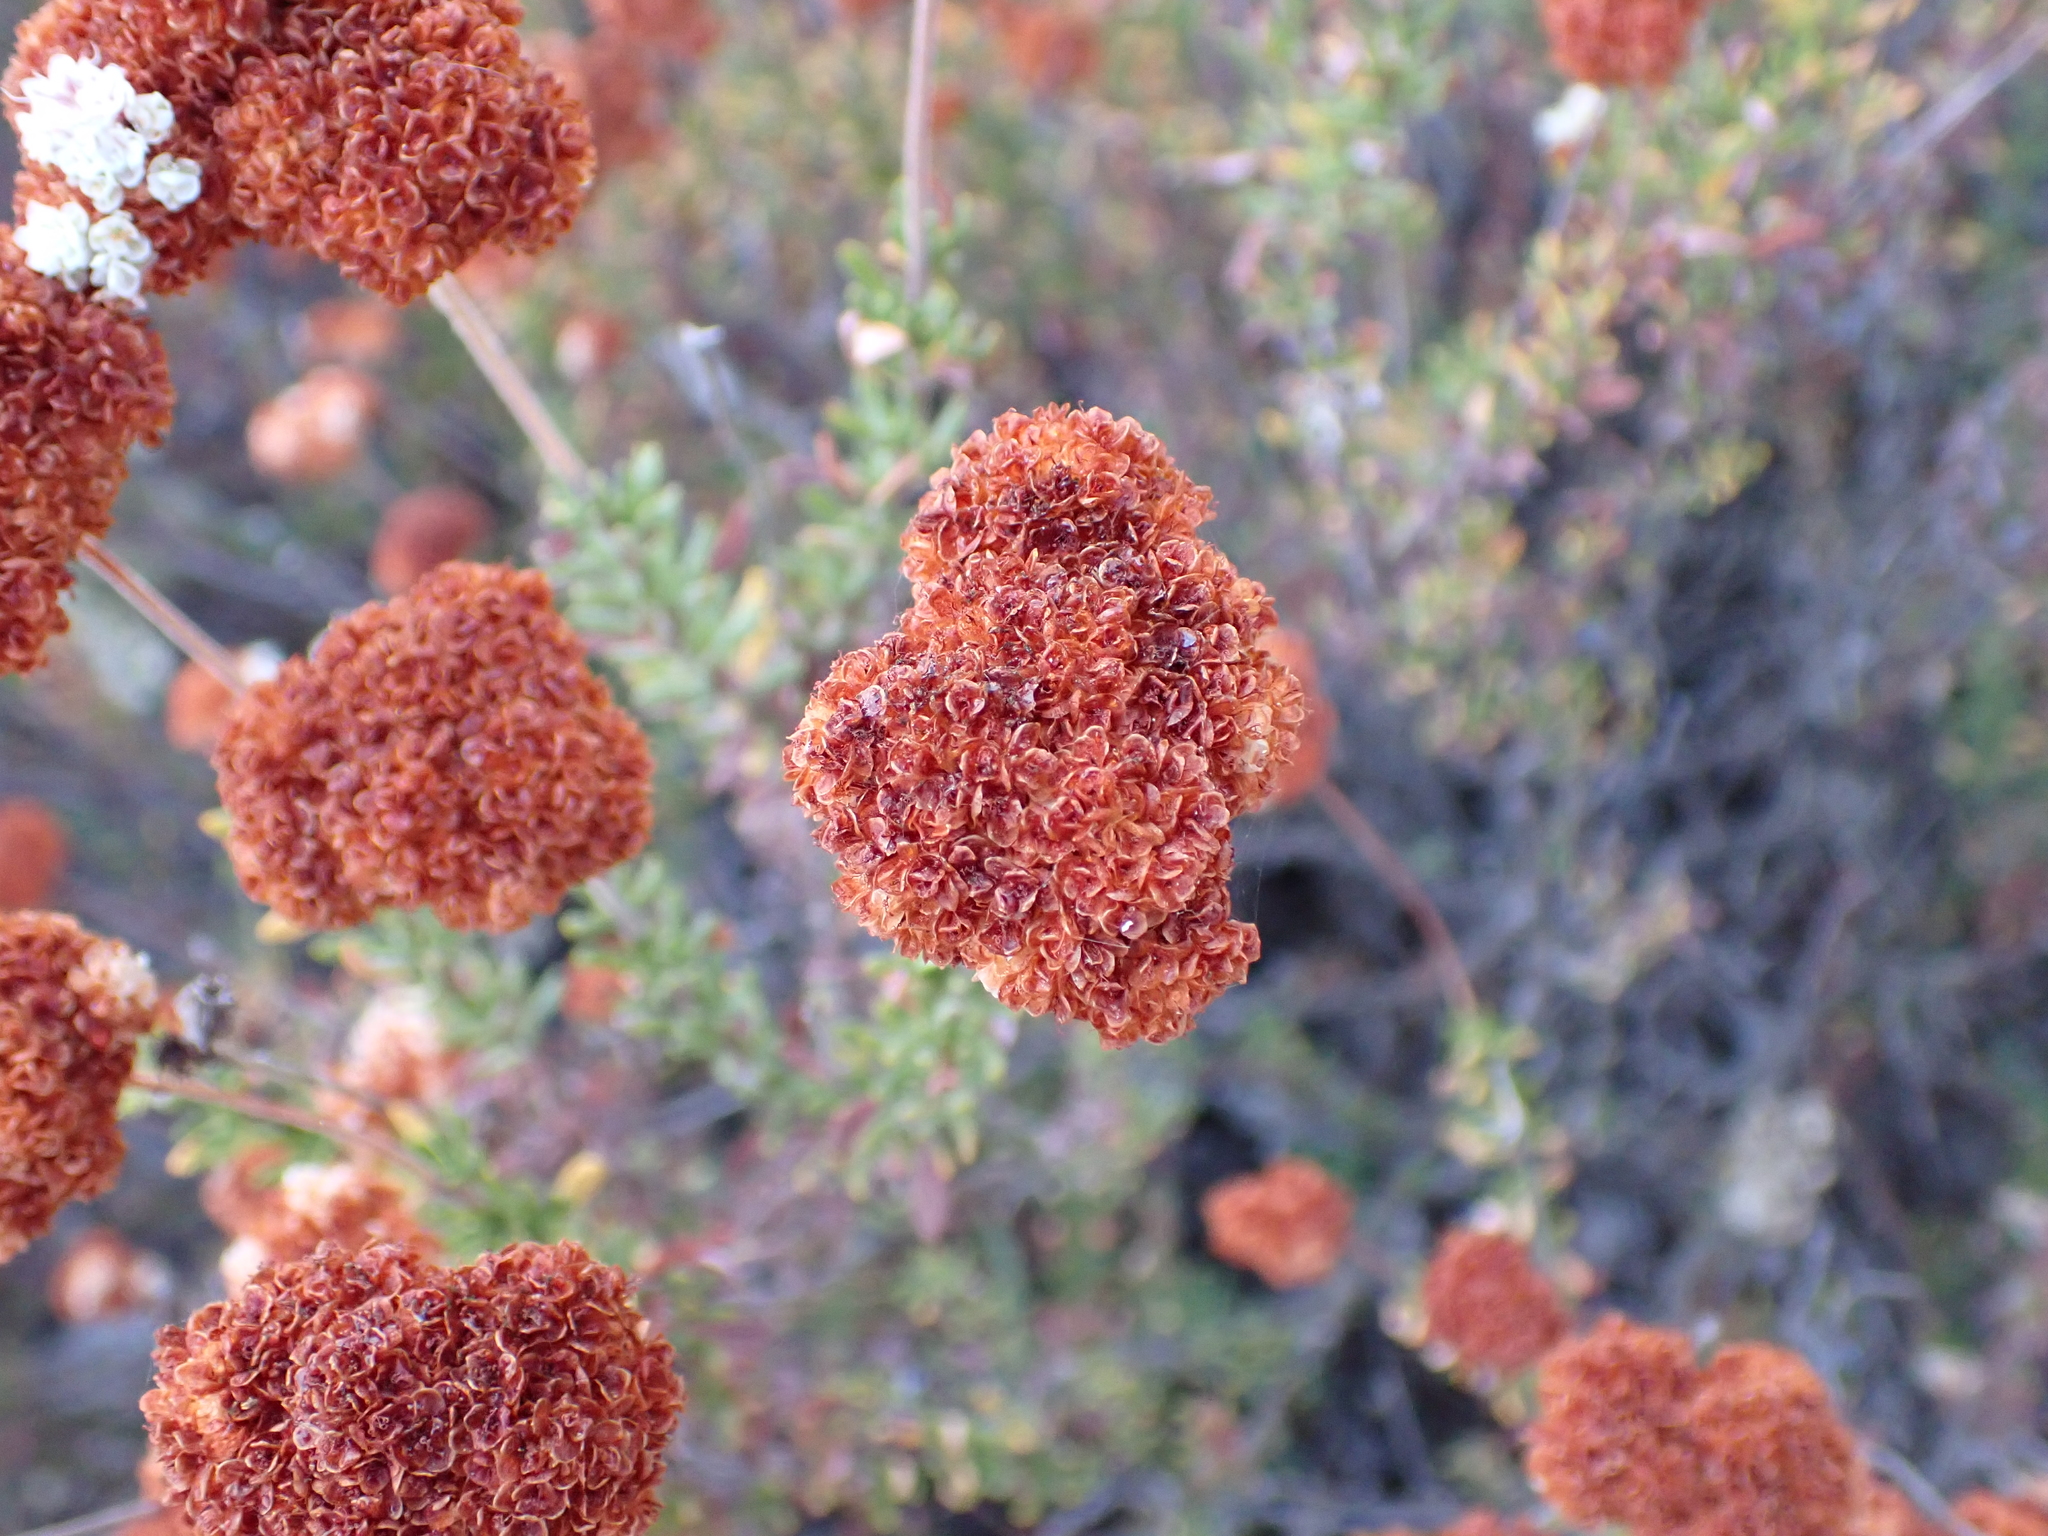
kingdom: Plantae
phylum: Tracheophyta
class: Magnoliopsida
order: Caryophyllales
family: Polygonaceae
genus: Eriogonum
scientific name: Eriogonum fasciculatum
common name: California wild buckwheat
